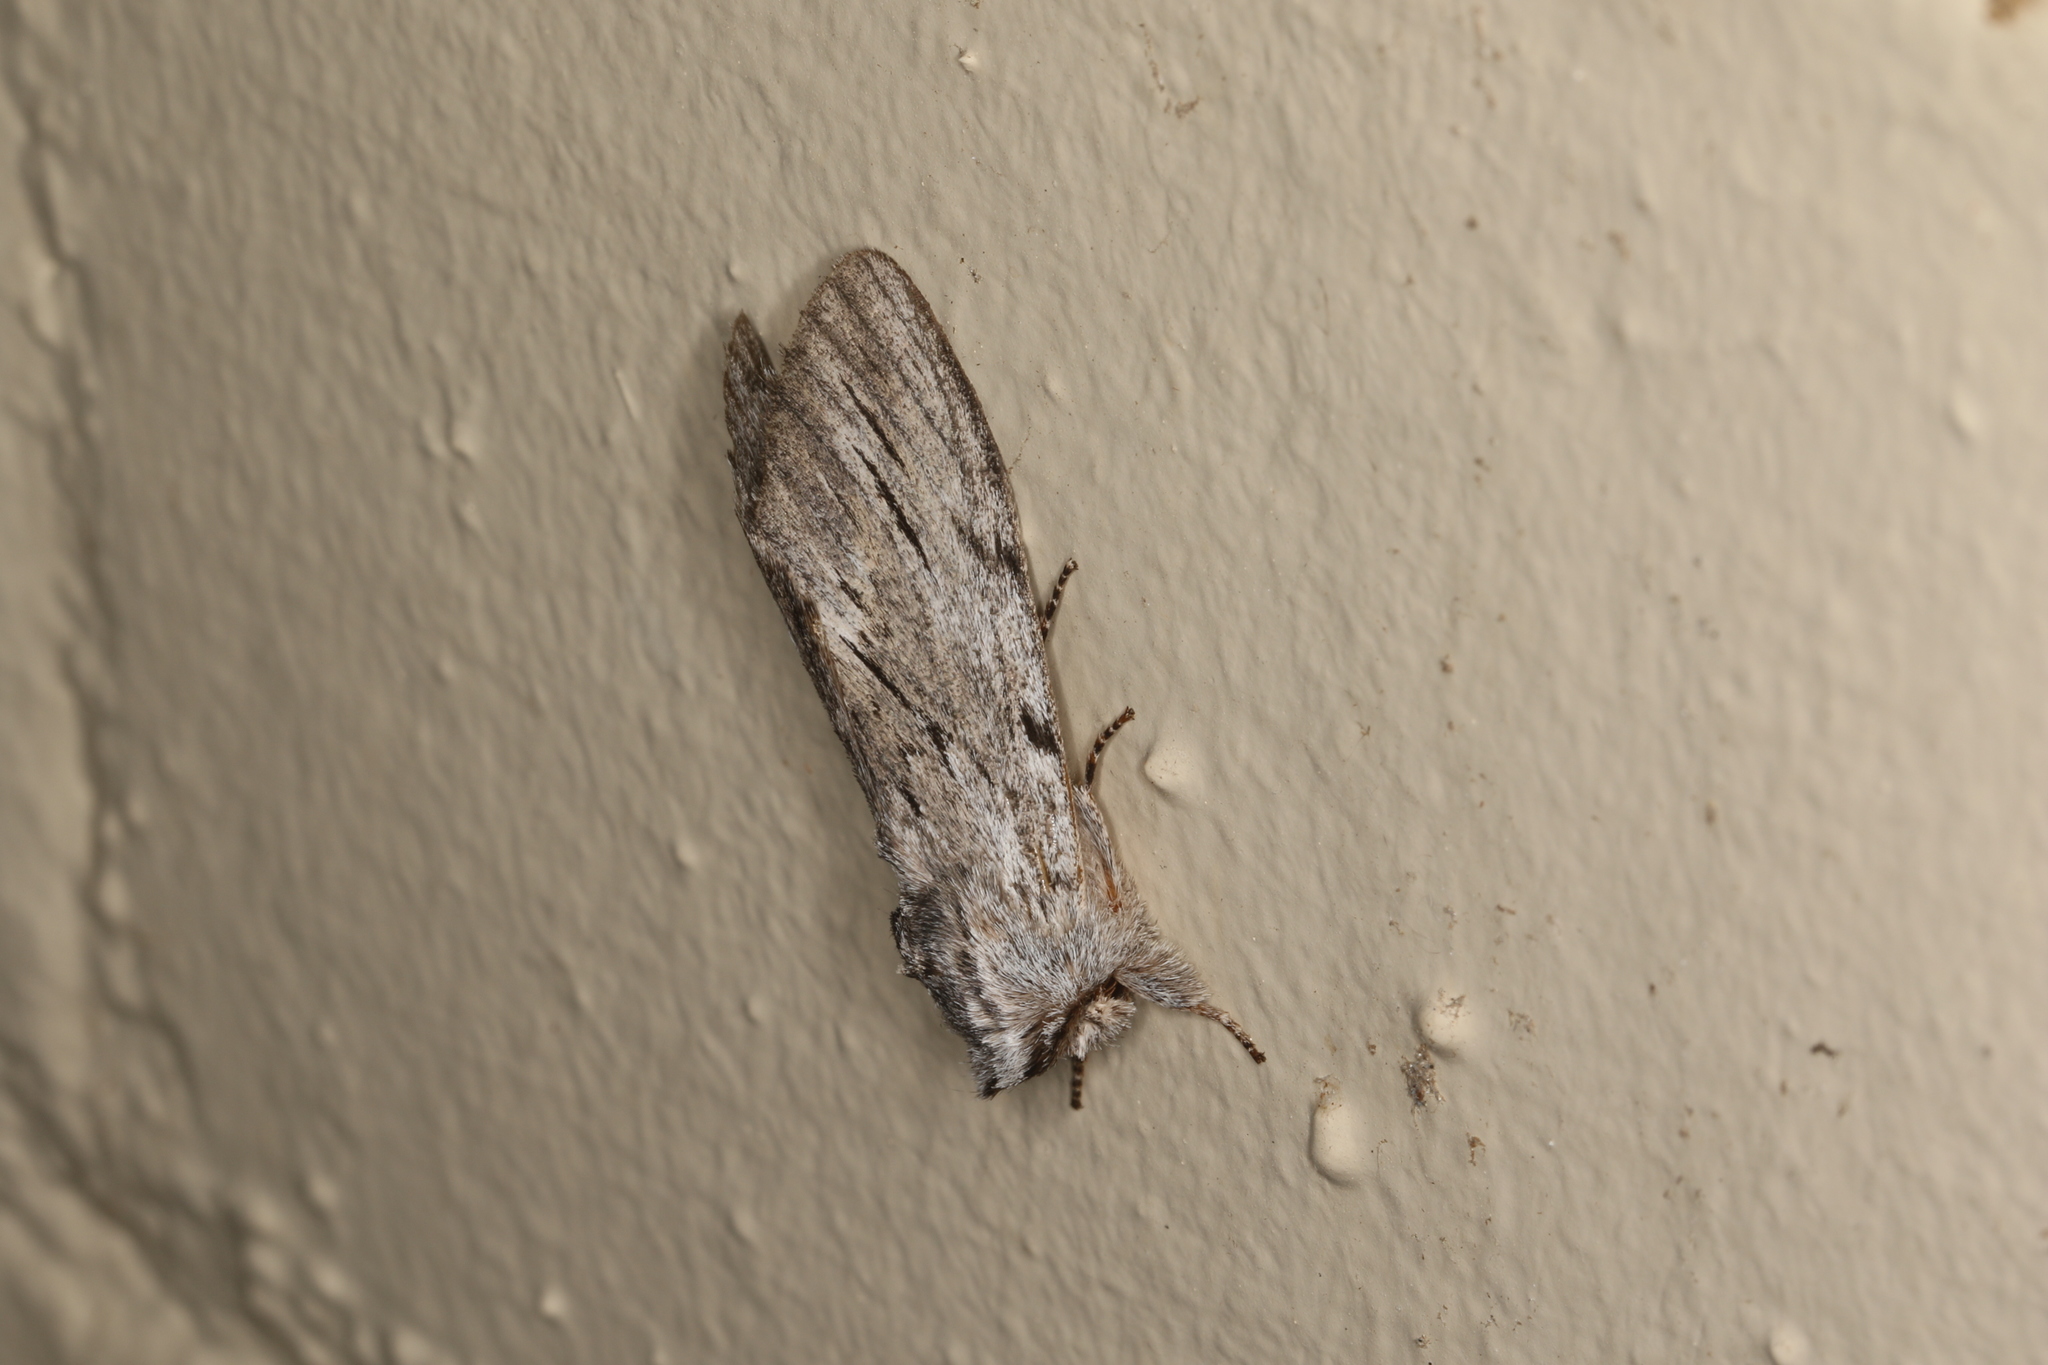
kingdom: Animalia
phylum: Arthropoda
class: Insecta
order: Lepidoptera
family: Notodontidae
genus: Destolmia
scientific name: Destolmia lineata
